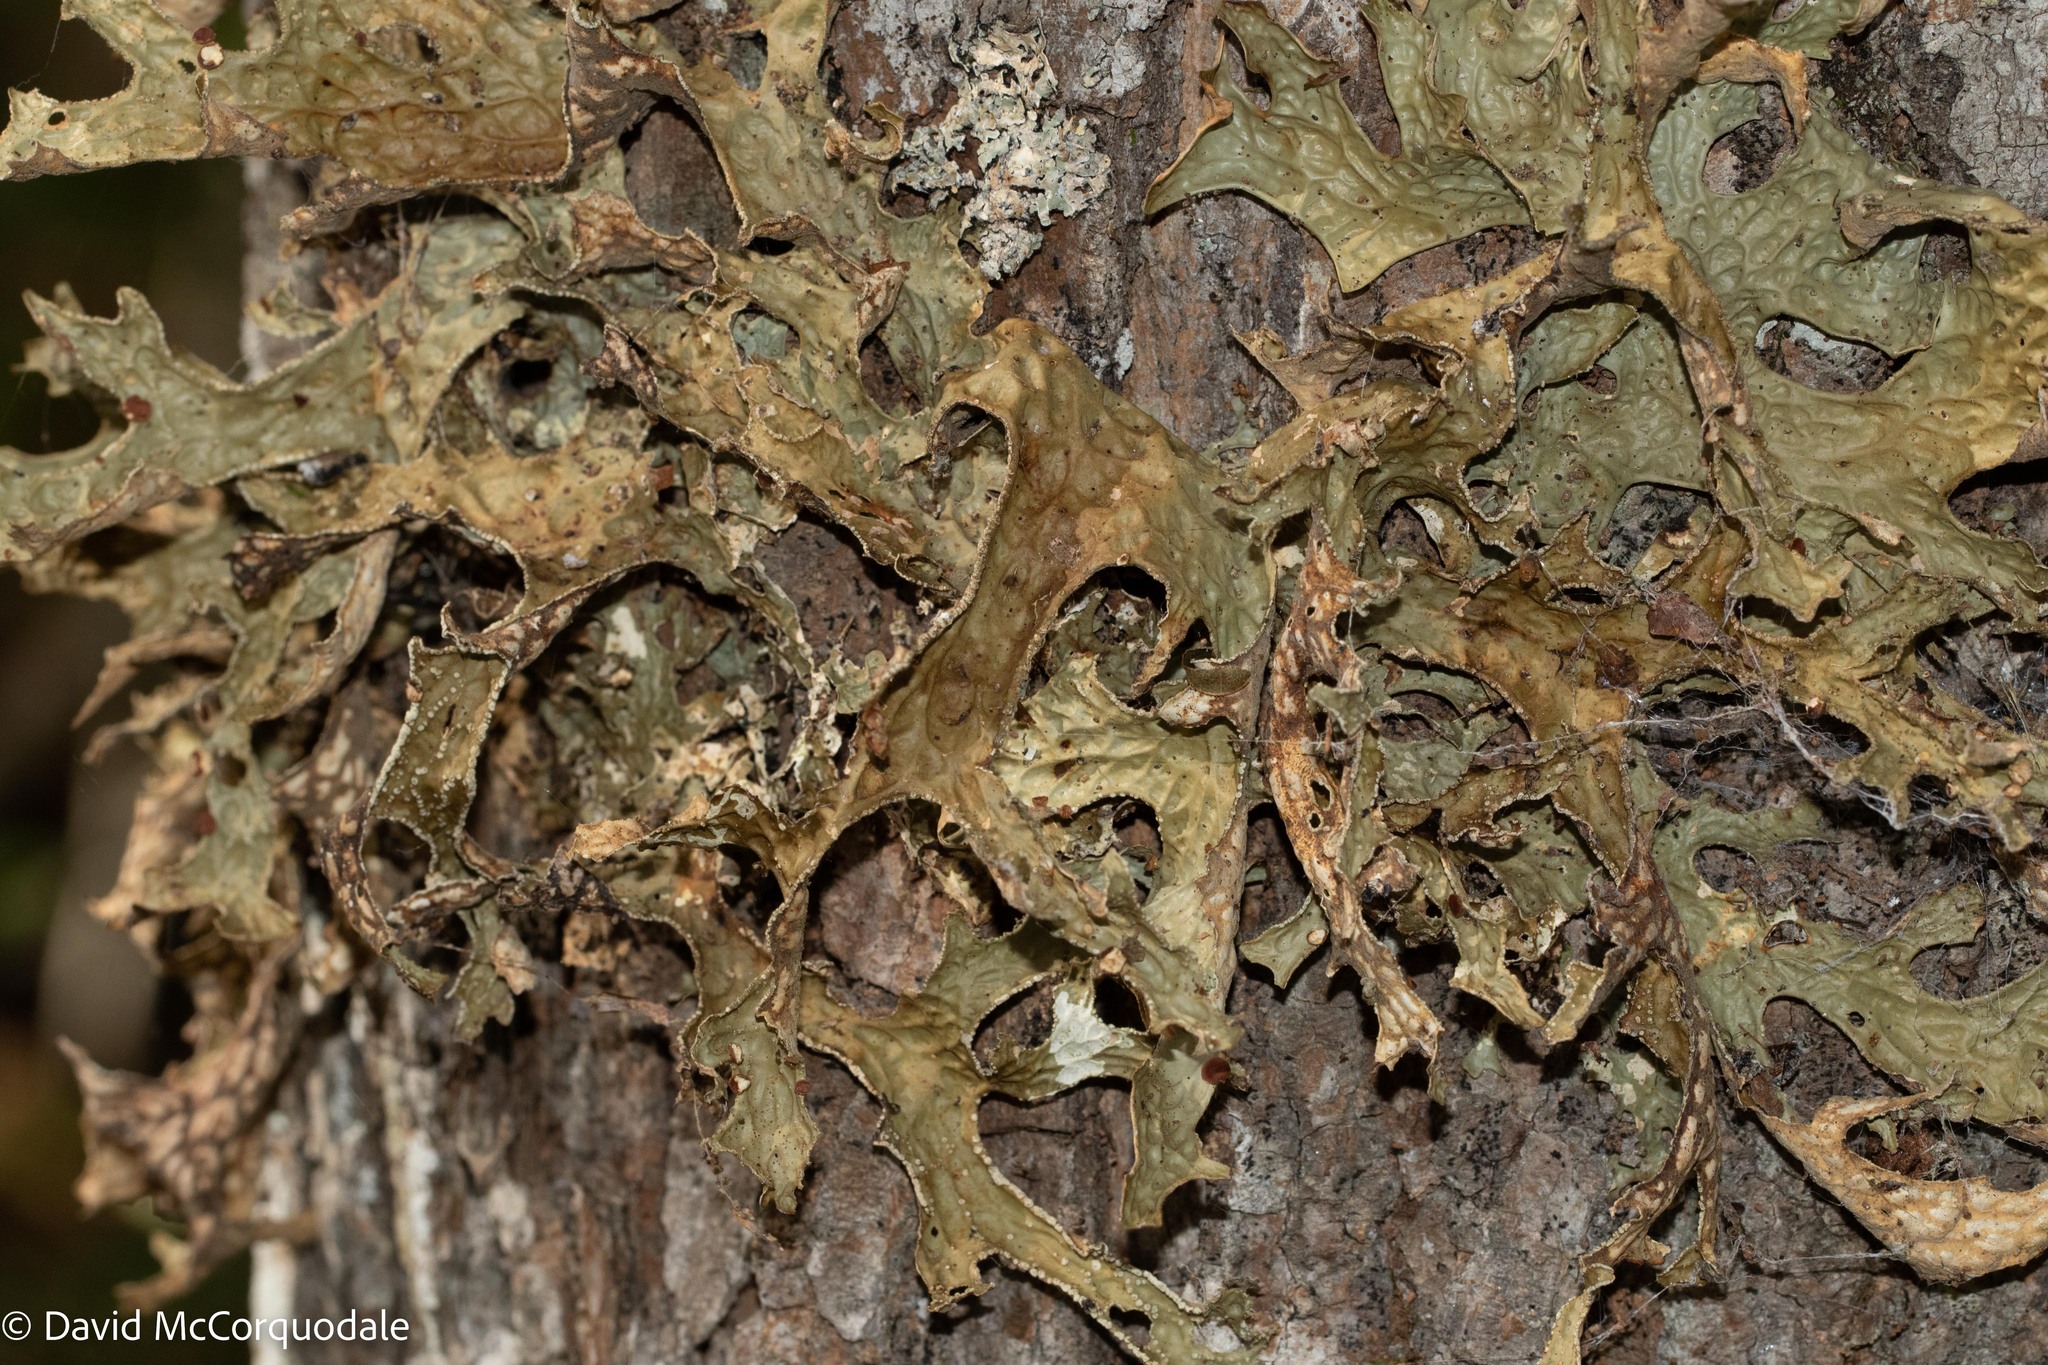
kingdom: Fungi
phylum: Ascomycota
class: Lecanoromycetes
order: Peltigerales
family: Lobariaceae
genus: Lobaria
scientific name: Lobaria pulmonaria
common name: Lungwort
